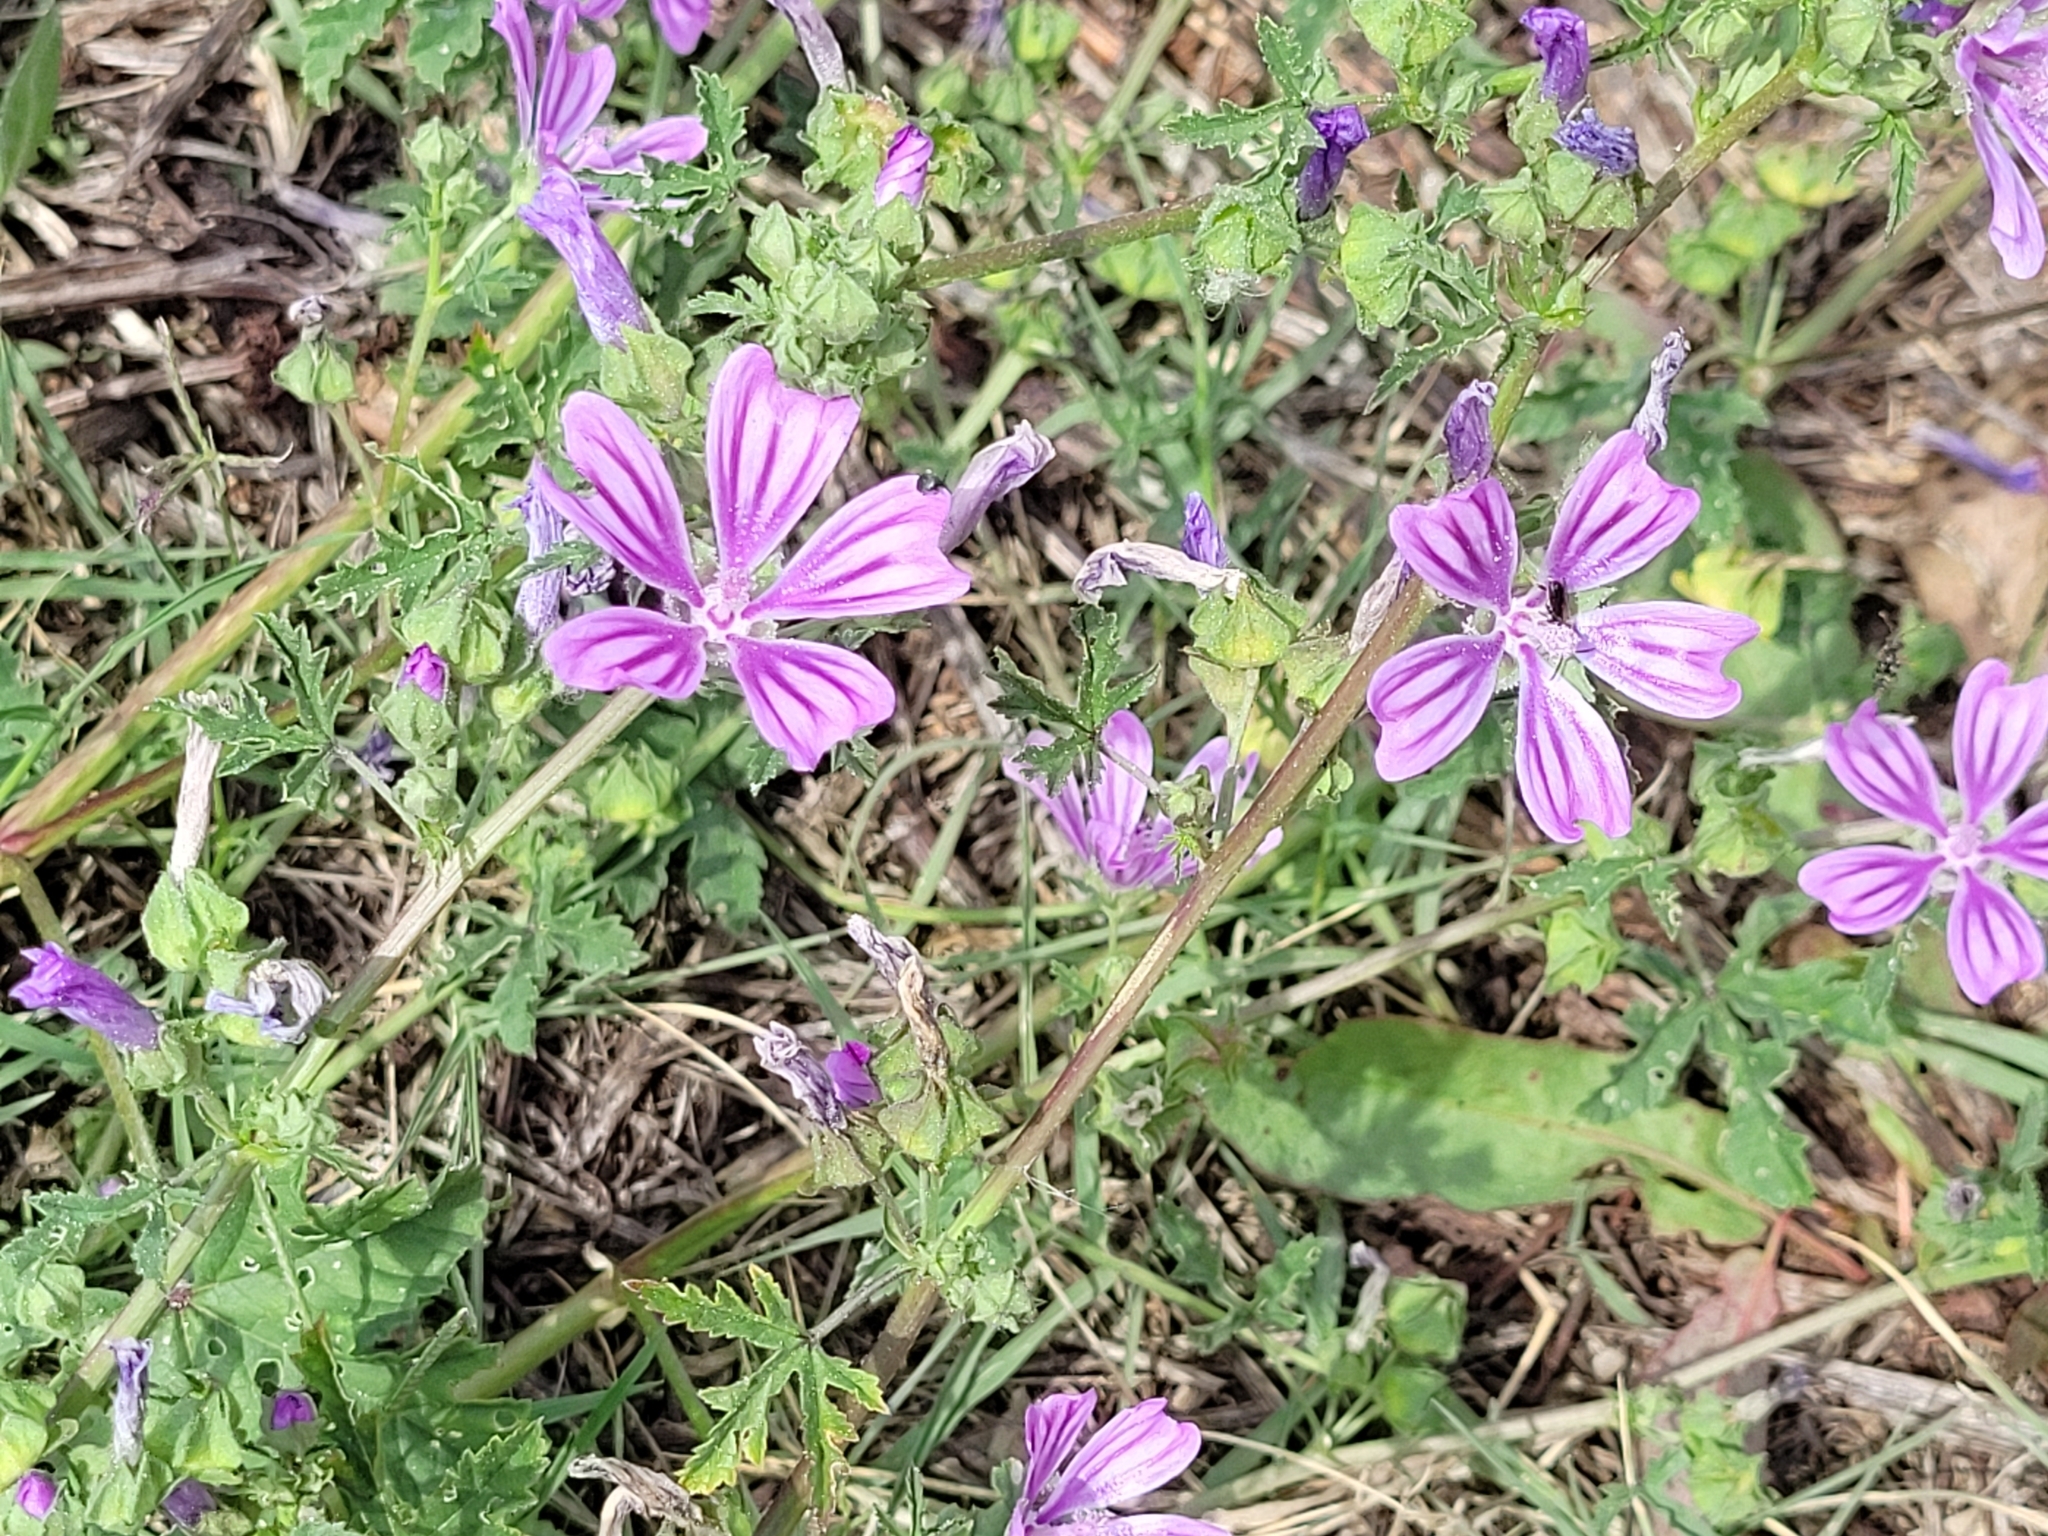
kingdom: Plantae
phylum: Tracheophyta
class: Magnoliopsida
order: Malvales
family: Malvaceae
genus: Malva
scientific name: Malva sylvestris
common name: Common mallow
